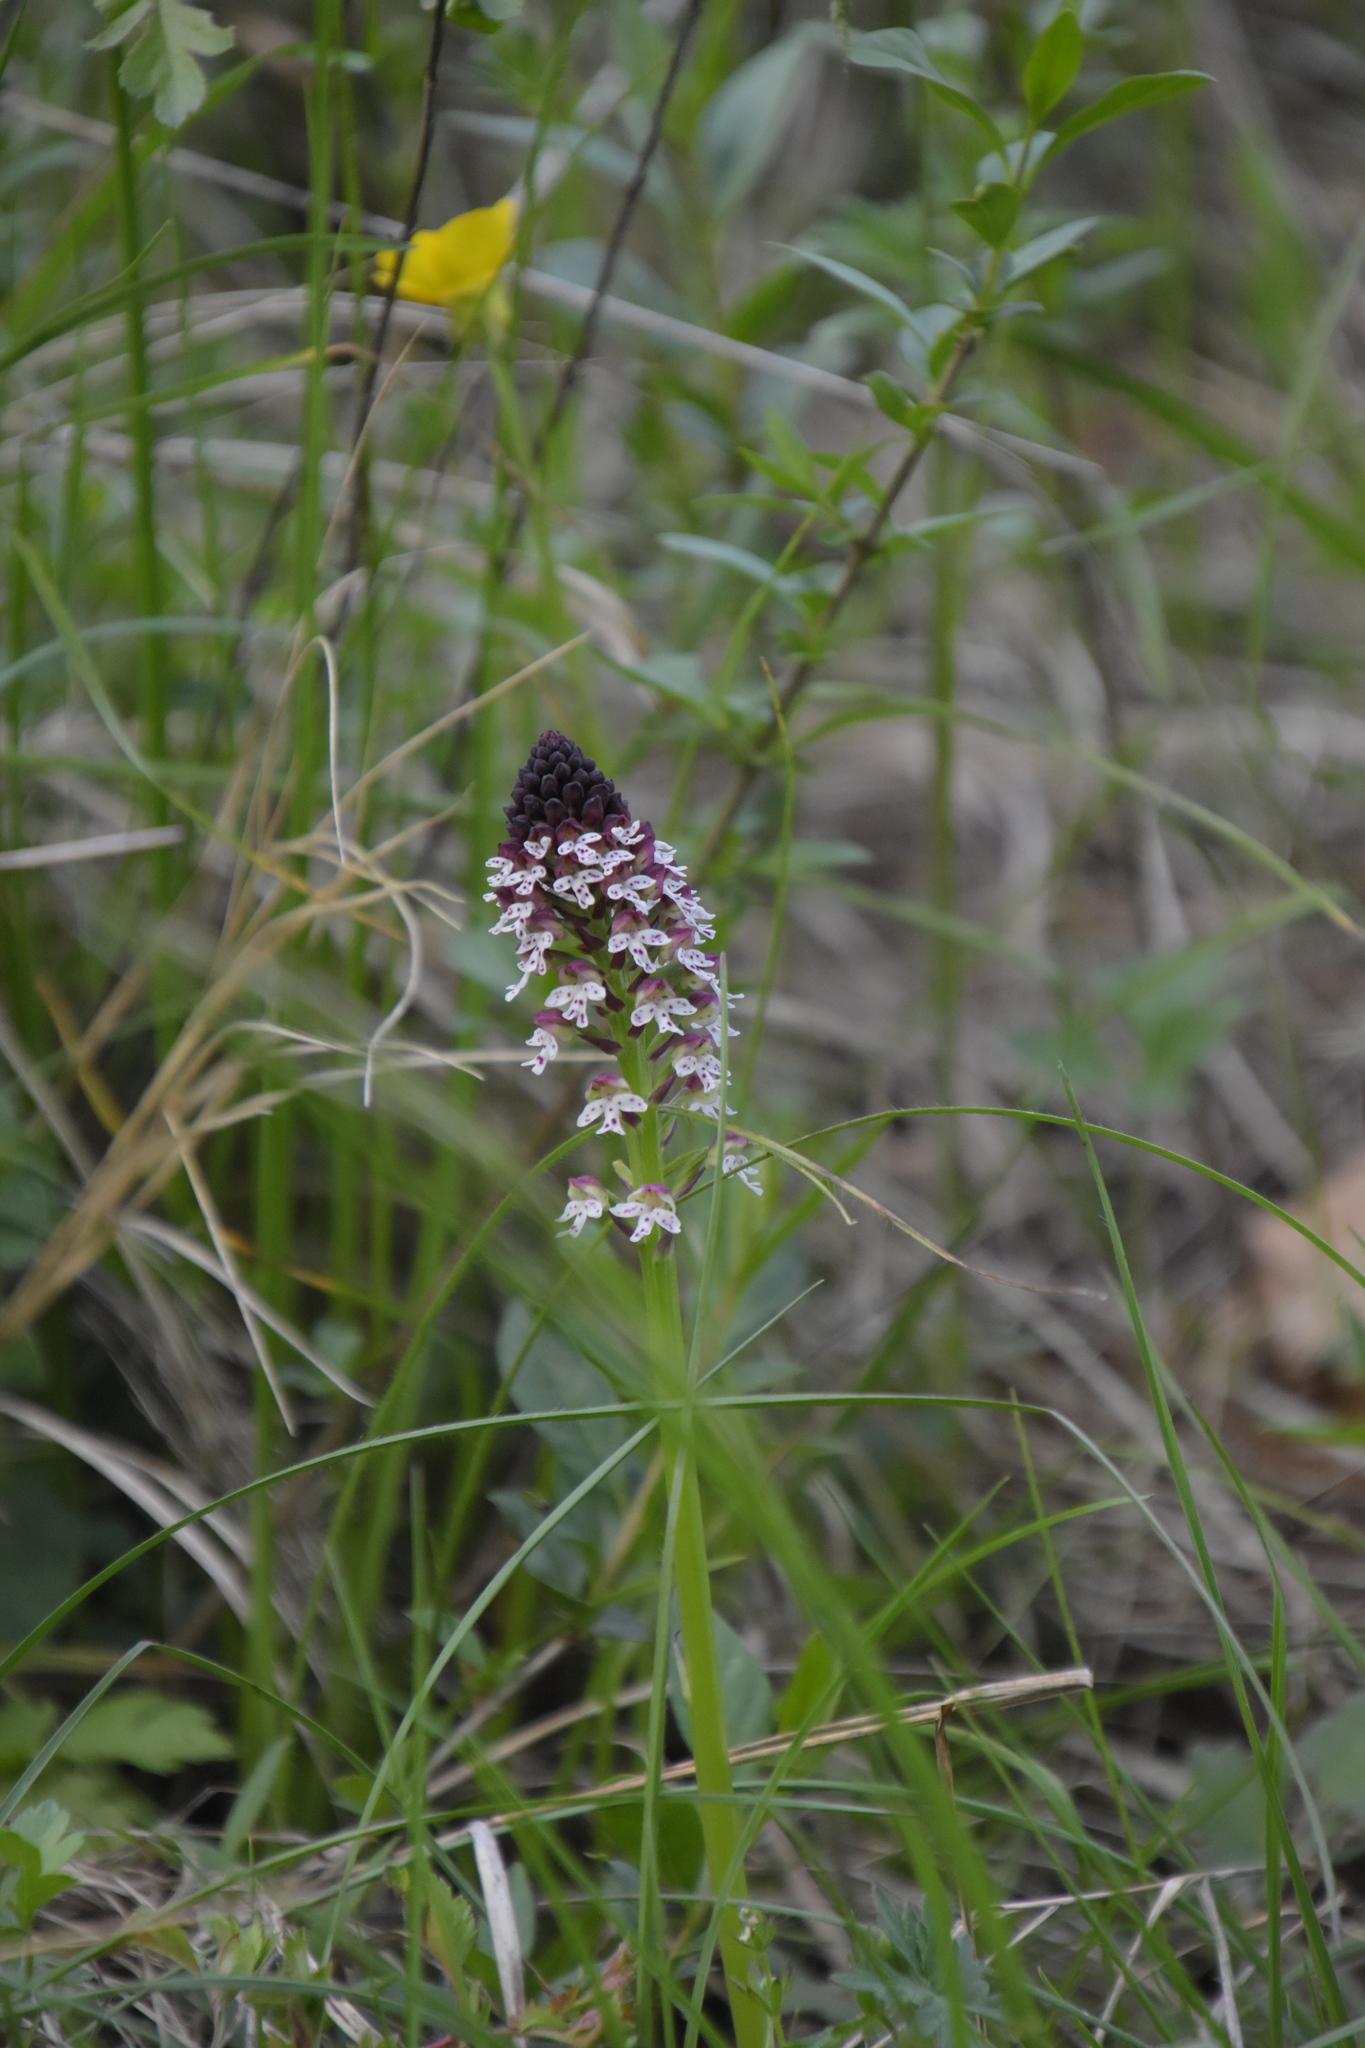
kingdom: Plantae
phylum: Tracheophyta
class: Liliopsida
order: Asparagales
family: Orchidaceae
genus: Neotinea
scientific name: Neotinea ustulata
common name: Burnt orchid
